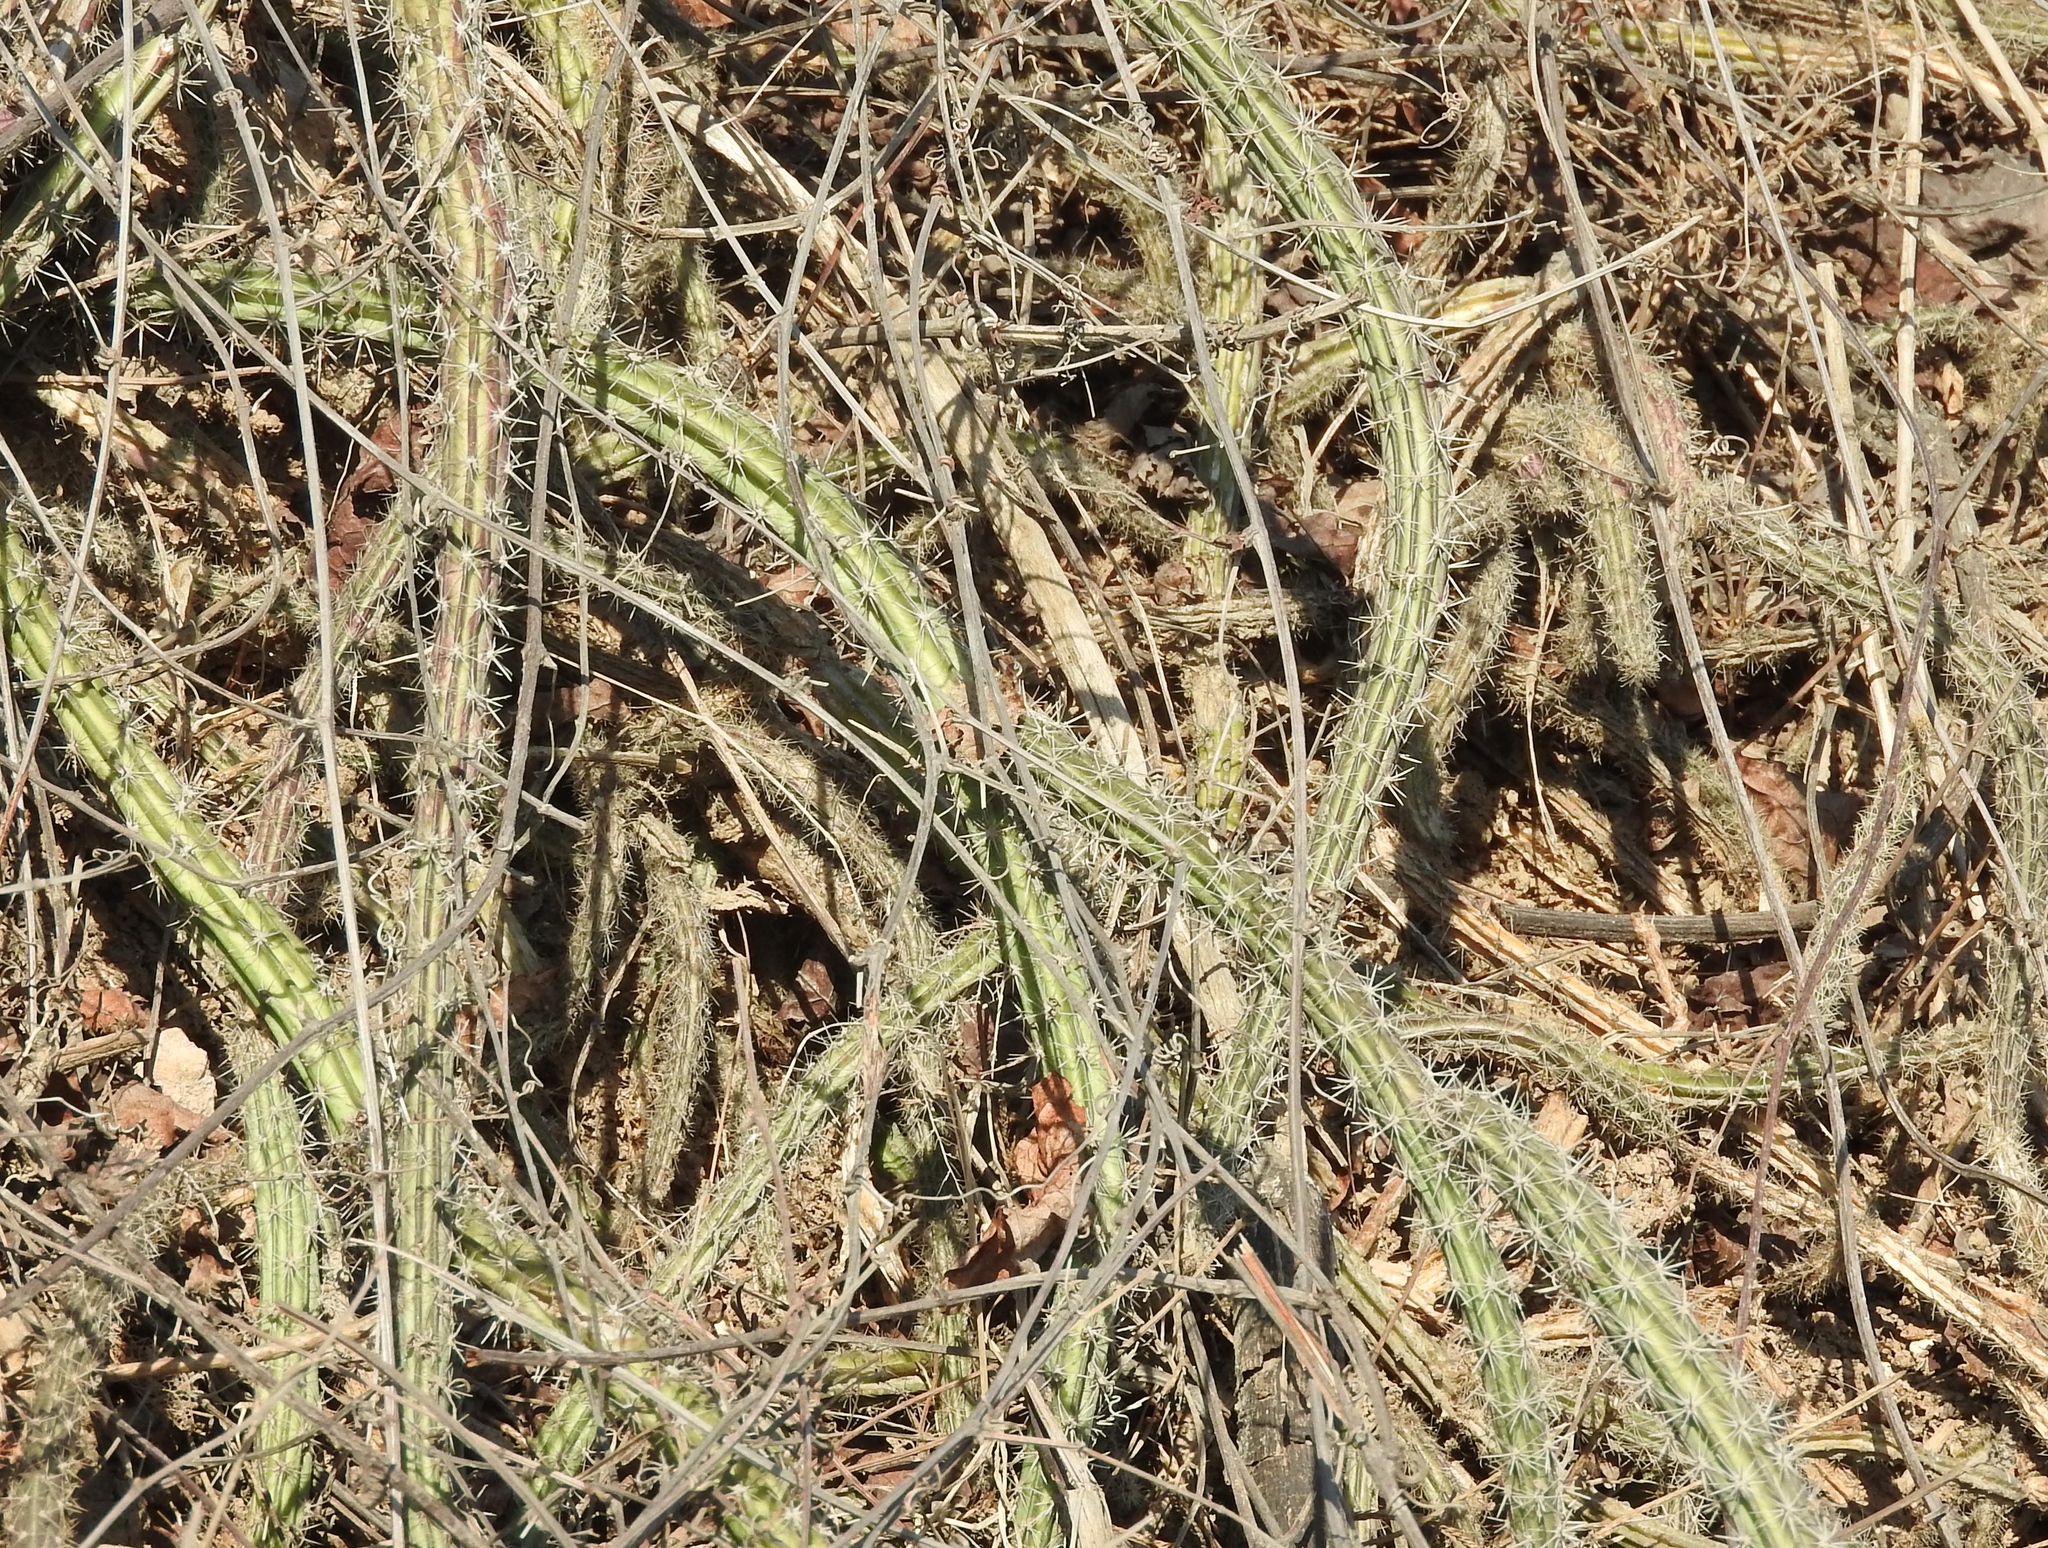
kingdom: Plantae
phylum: Tracheophyta
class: Magnoliopsida
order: Caryophyllales
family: Cactaceae
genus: Selenicereus
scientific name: Selenicereus vagans
